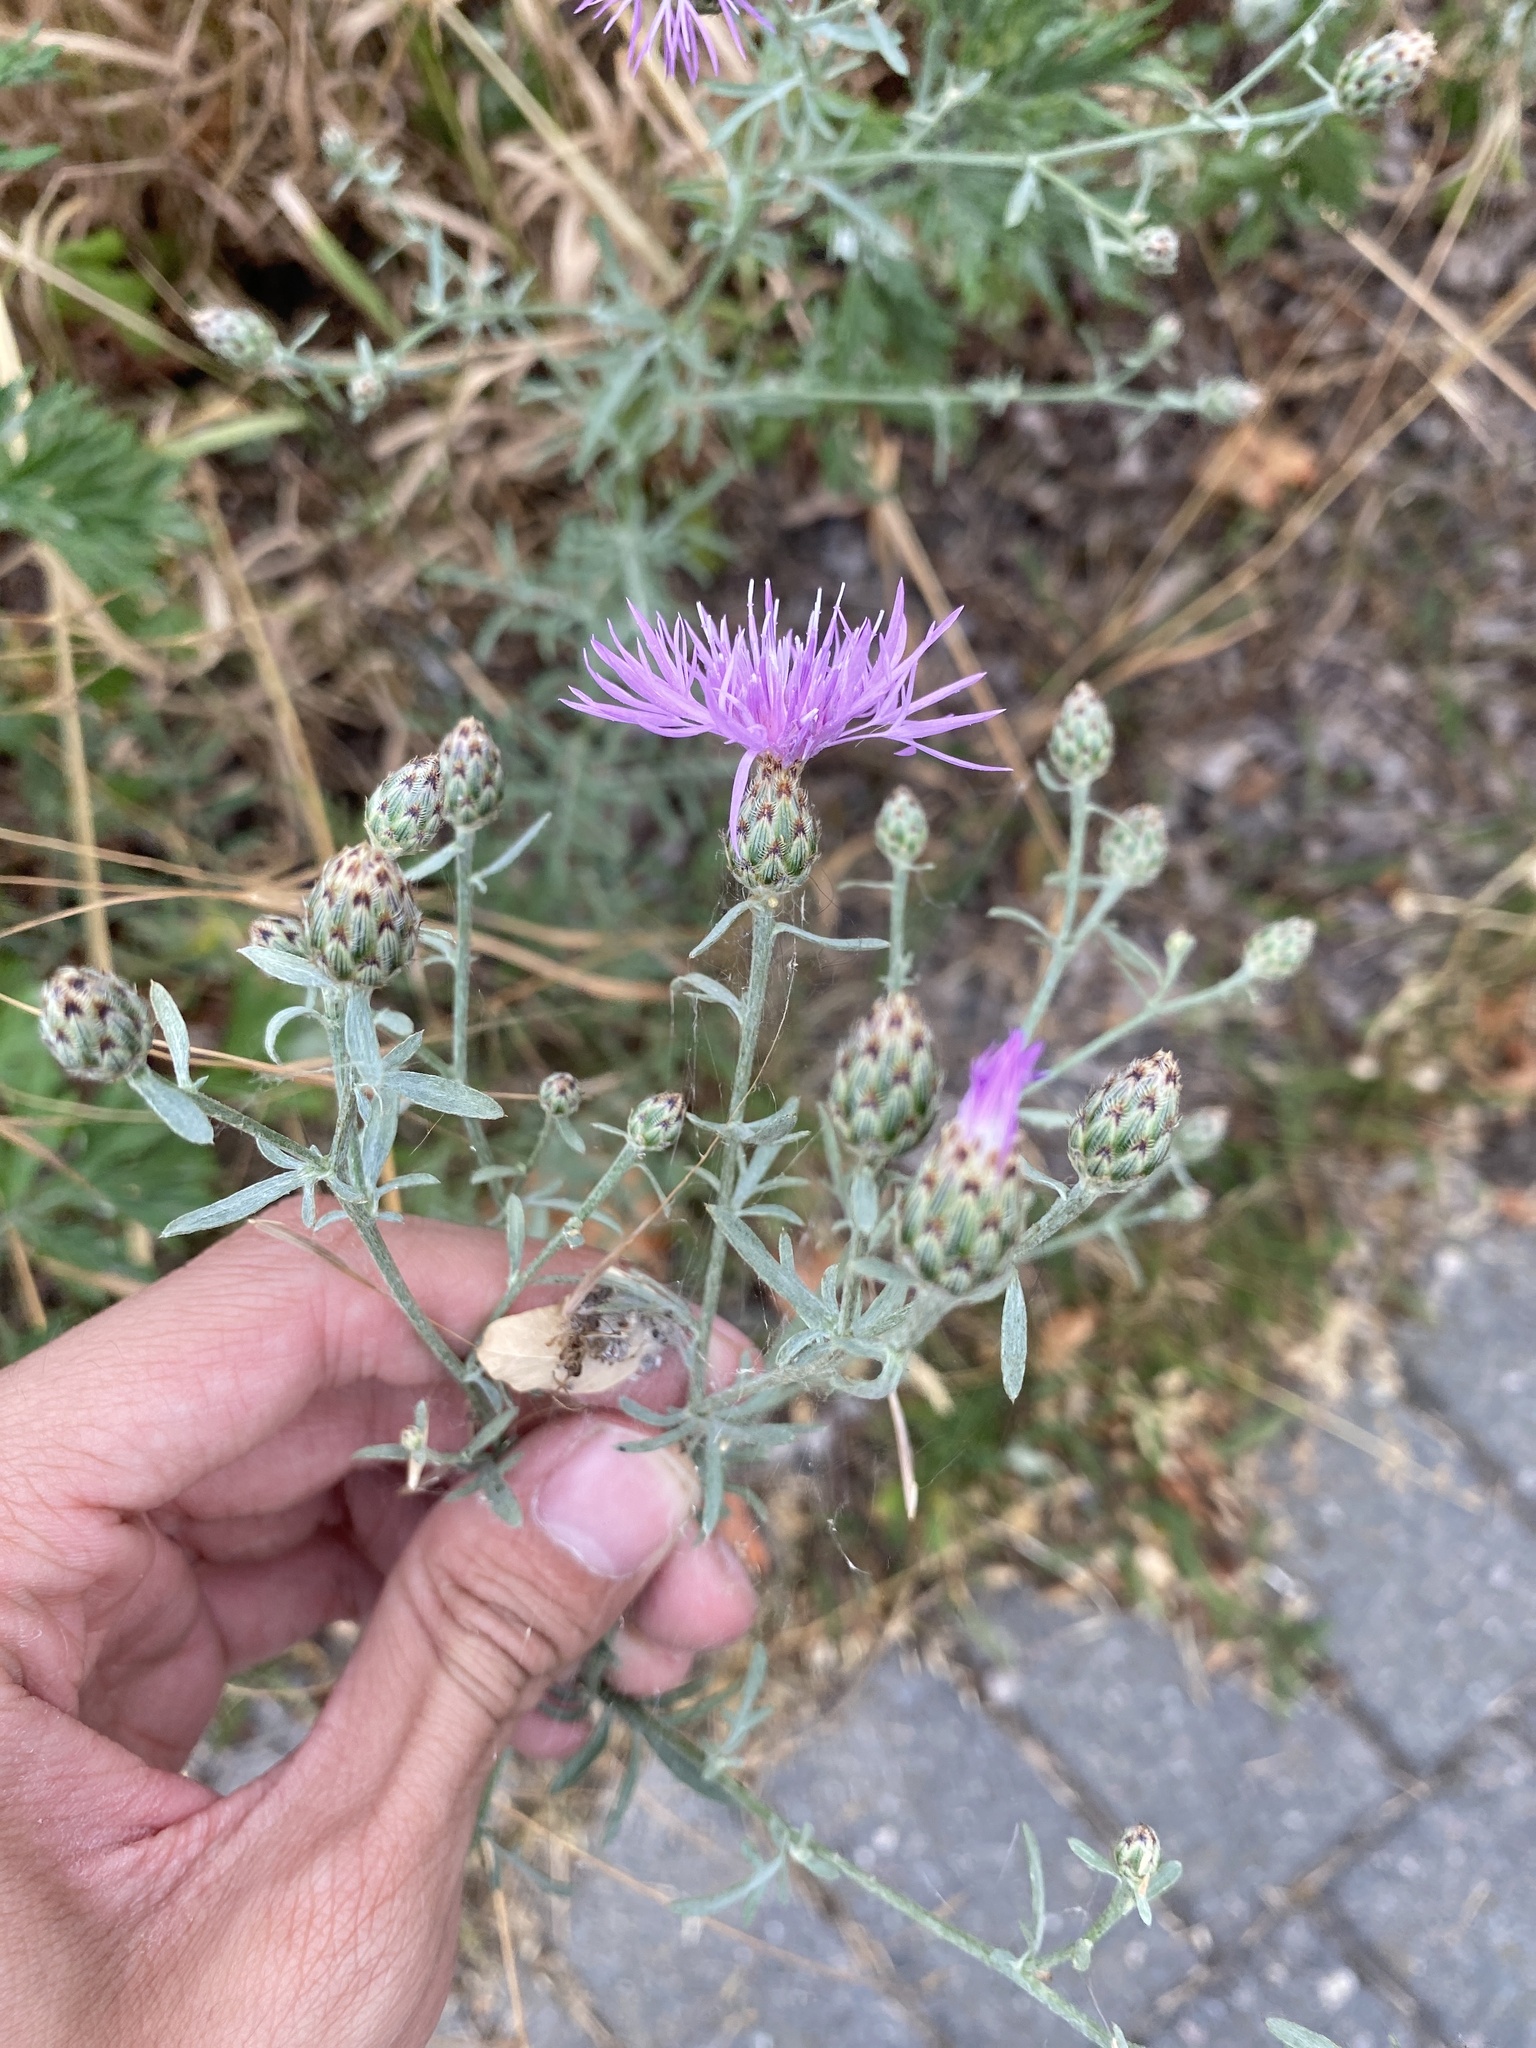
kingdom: Plantae
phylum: Tracheophyta
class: Magnoliopsida
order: Asterales
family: Asteraceae
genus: Centaurea
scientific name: Centaurea stoebe
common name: Spotted knapweed
